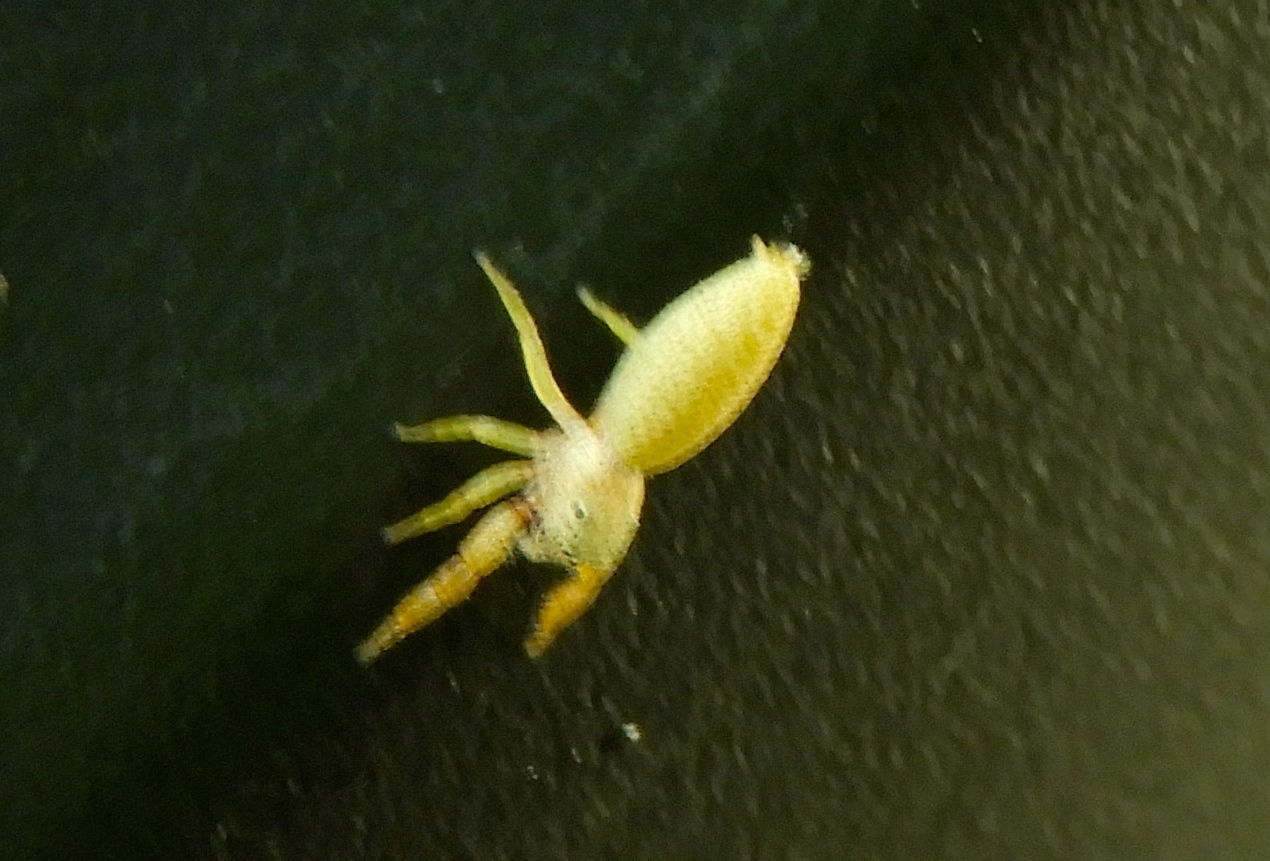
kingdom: Animalia
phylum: Arthropoda
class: Arachnida
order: Araneae
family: Salticidae
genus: Hentzia
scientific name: Hentzia palmarum
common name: Common hentz jumping spider
